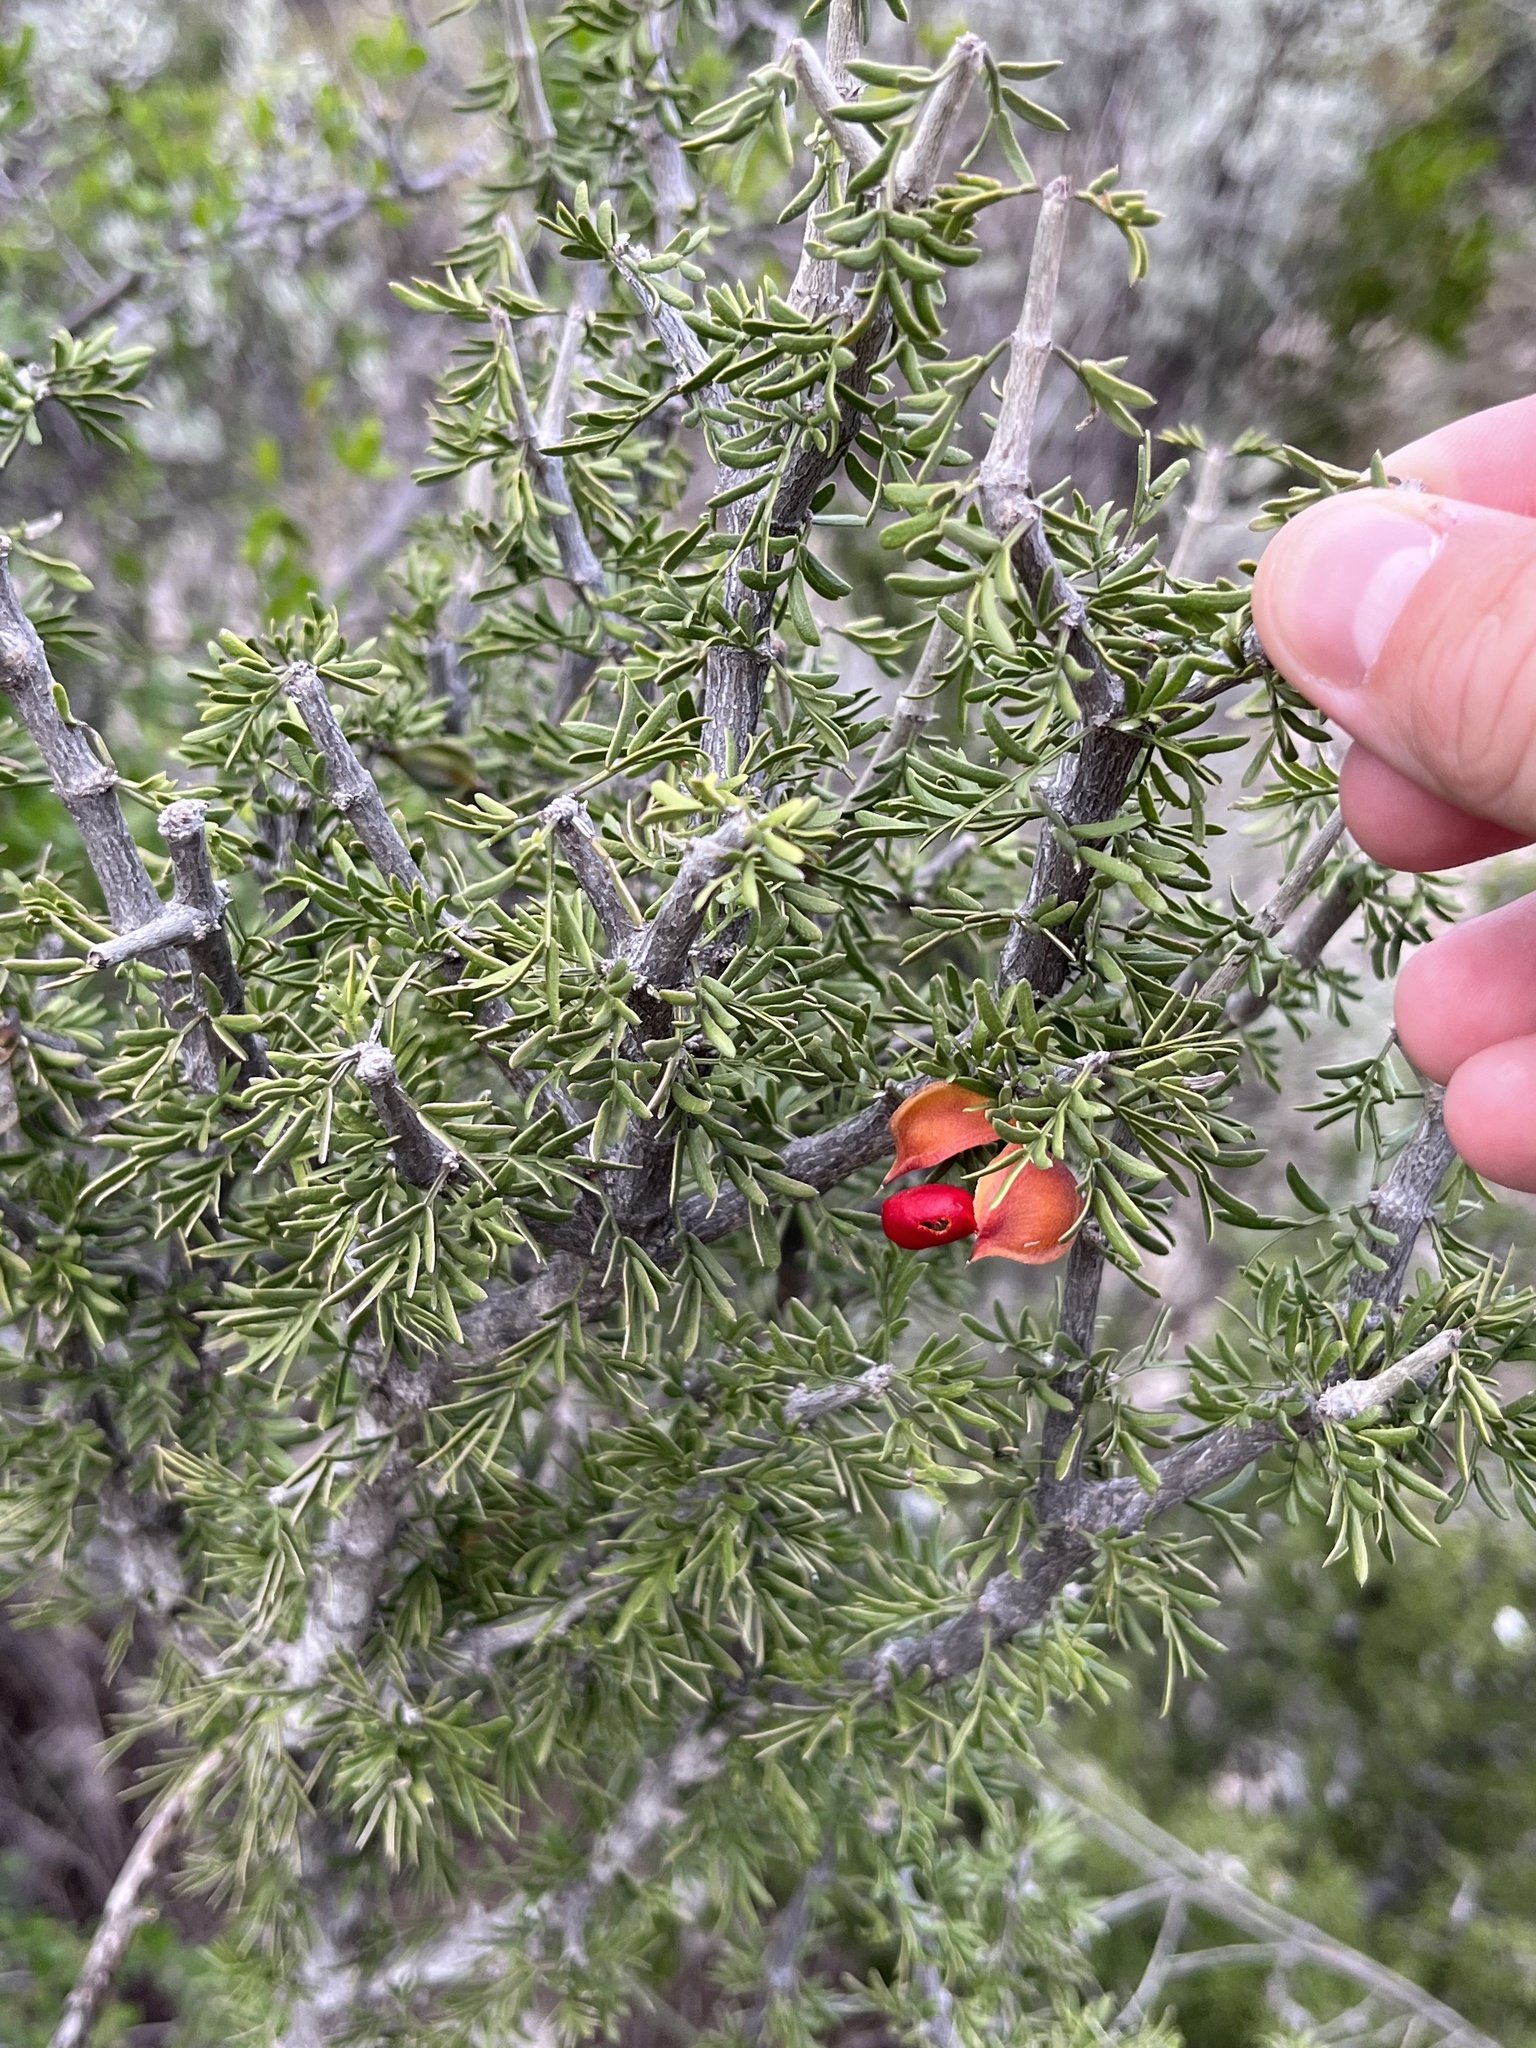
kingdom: Plantae
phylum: Tracheophyta
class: Magnoliopsida
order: Zygophyllales
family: Zygophyllaceae
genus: Porlieria
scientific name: Porlieria angustifolia
